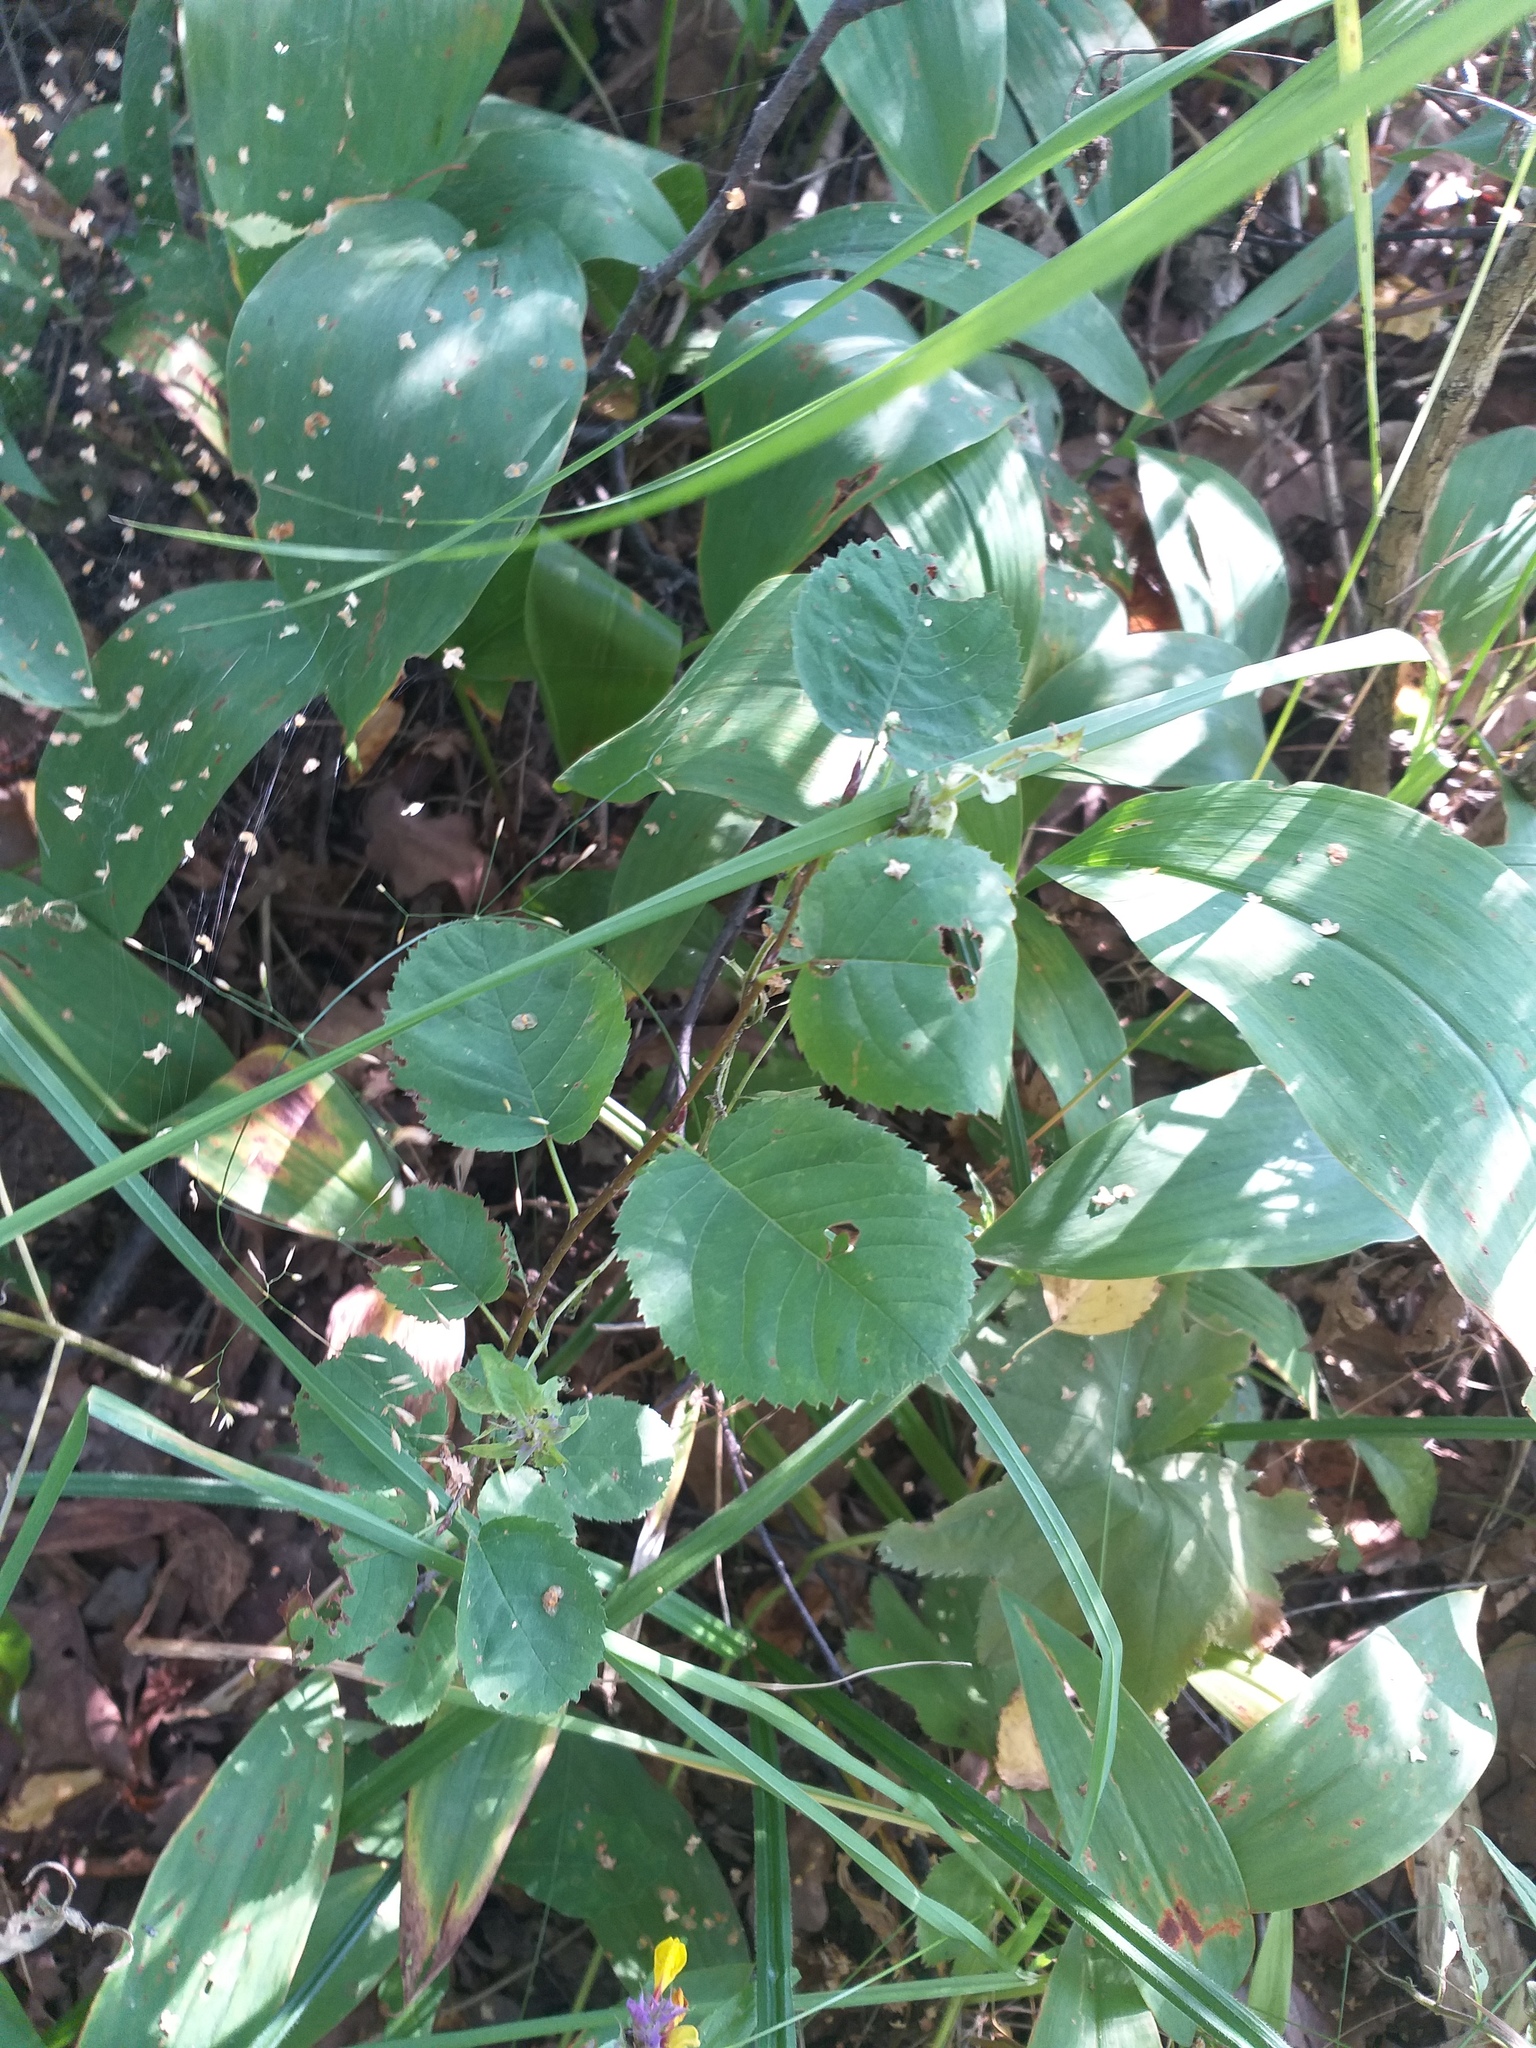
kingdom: Plantae
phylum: Tracheophyta
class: Magnoliopsida
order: Rosales
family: Rosaceae
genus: Amelanchier
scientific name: Amelanchier
